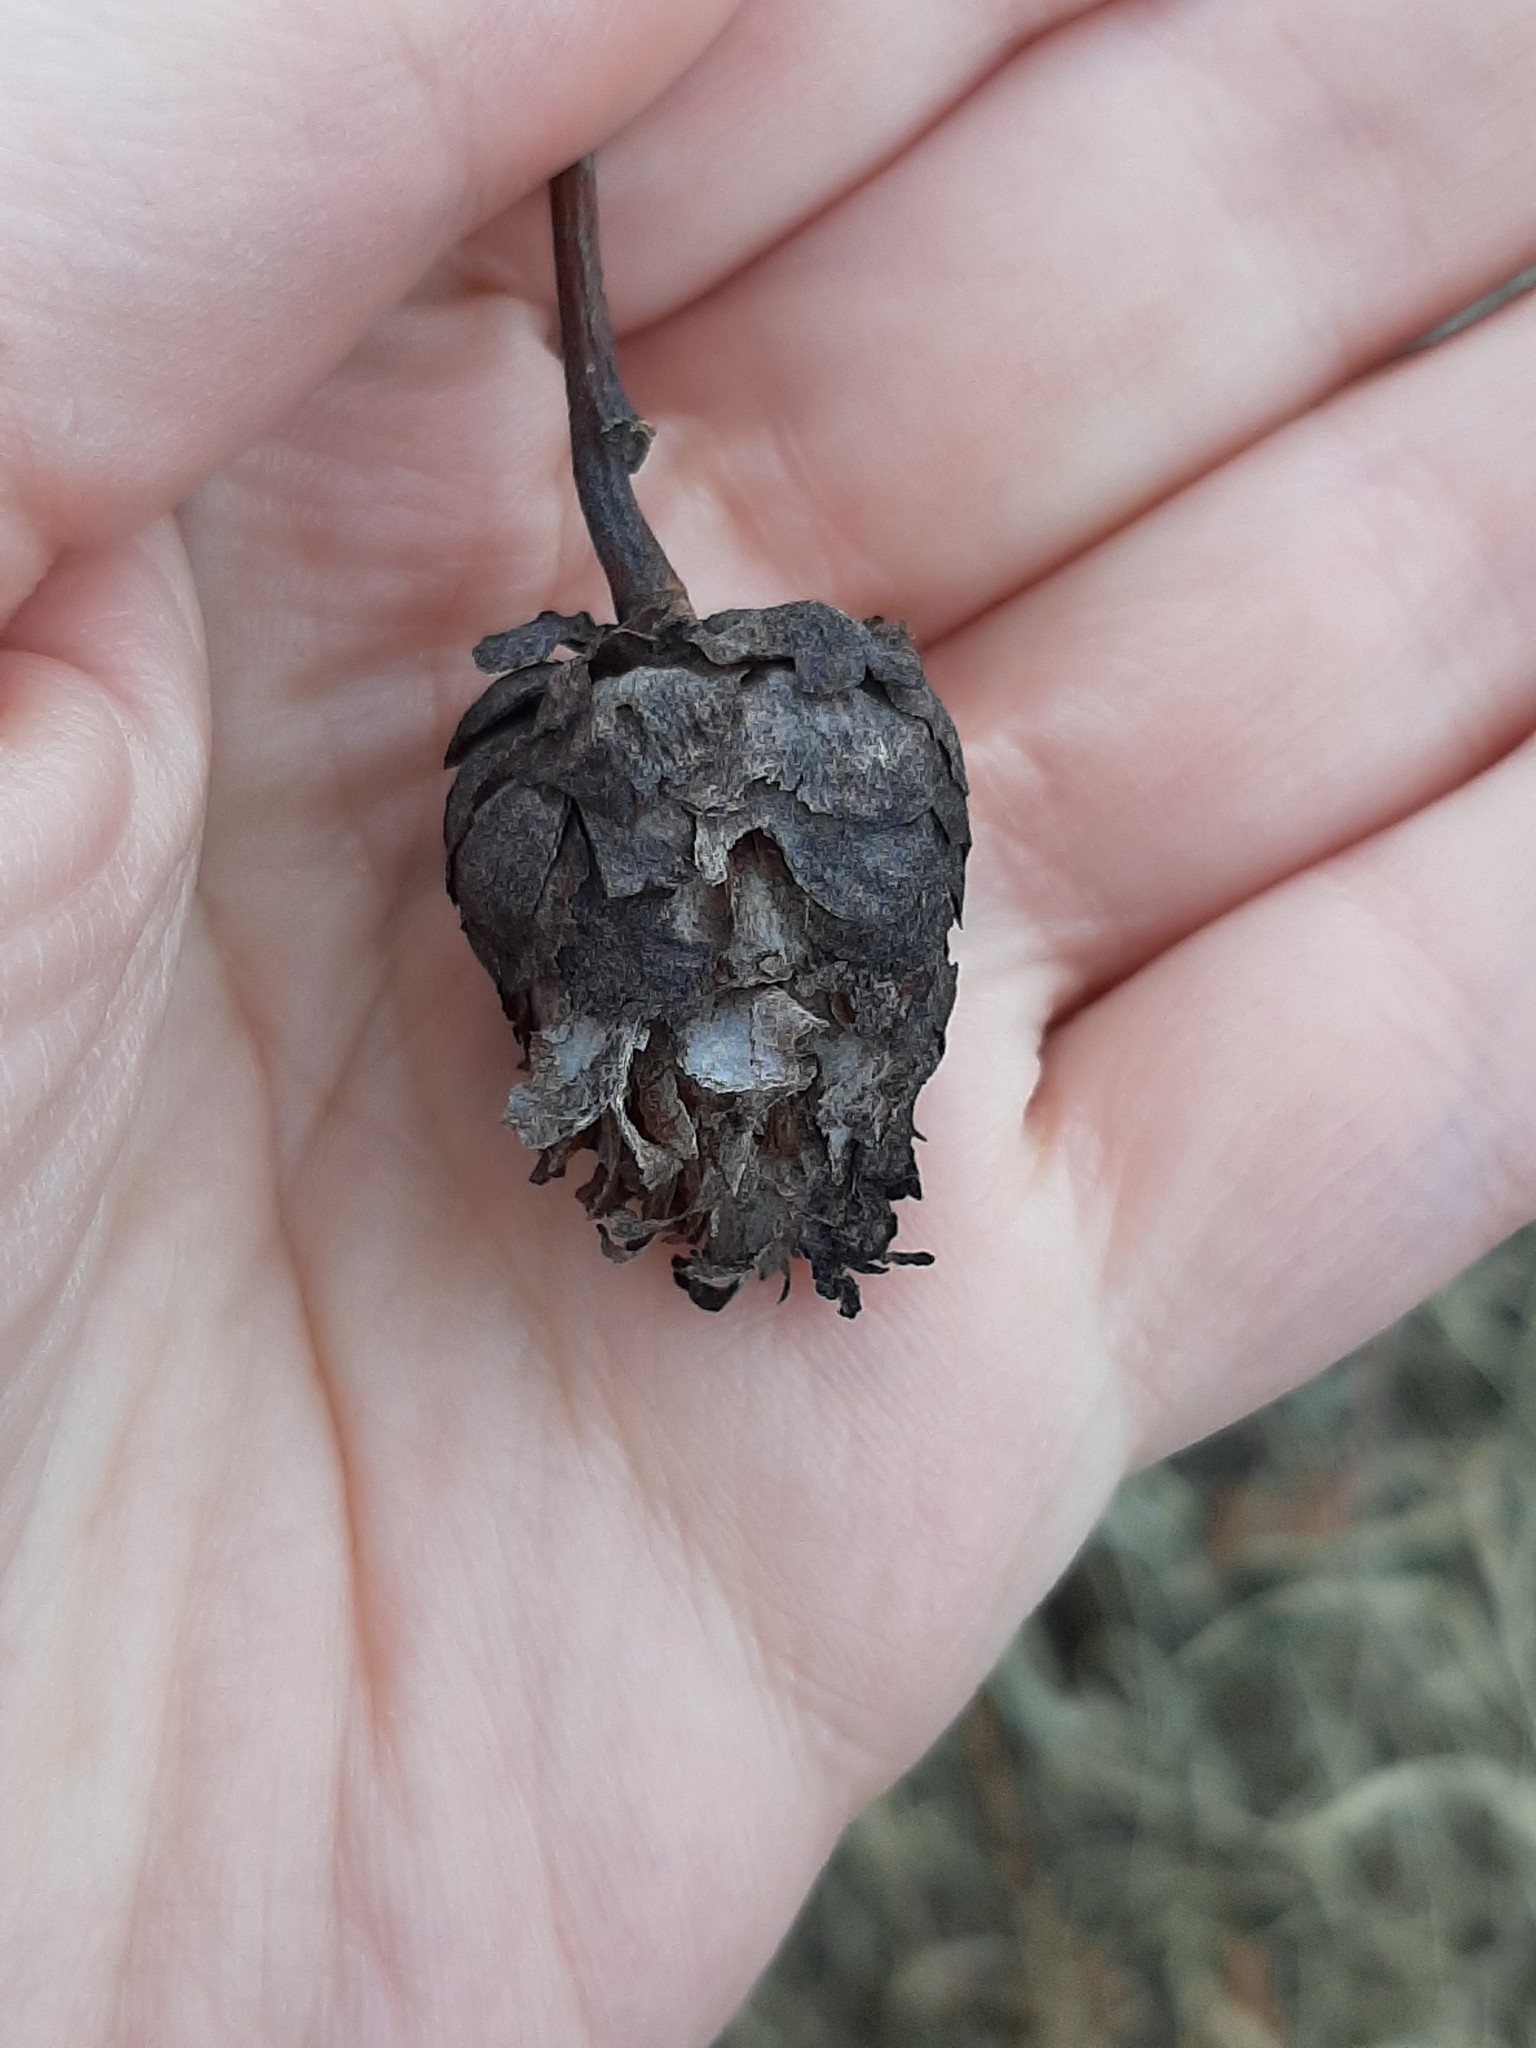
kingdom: Animalia
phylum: Arthropoda
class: Insecta
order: Diptera
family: Cecidomyiidae
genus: Rabdophaga
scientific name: Rabdophaga strobiloides
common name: Willow pinecone gall midge
